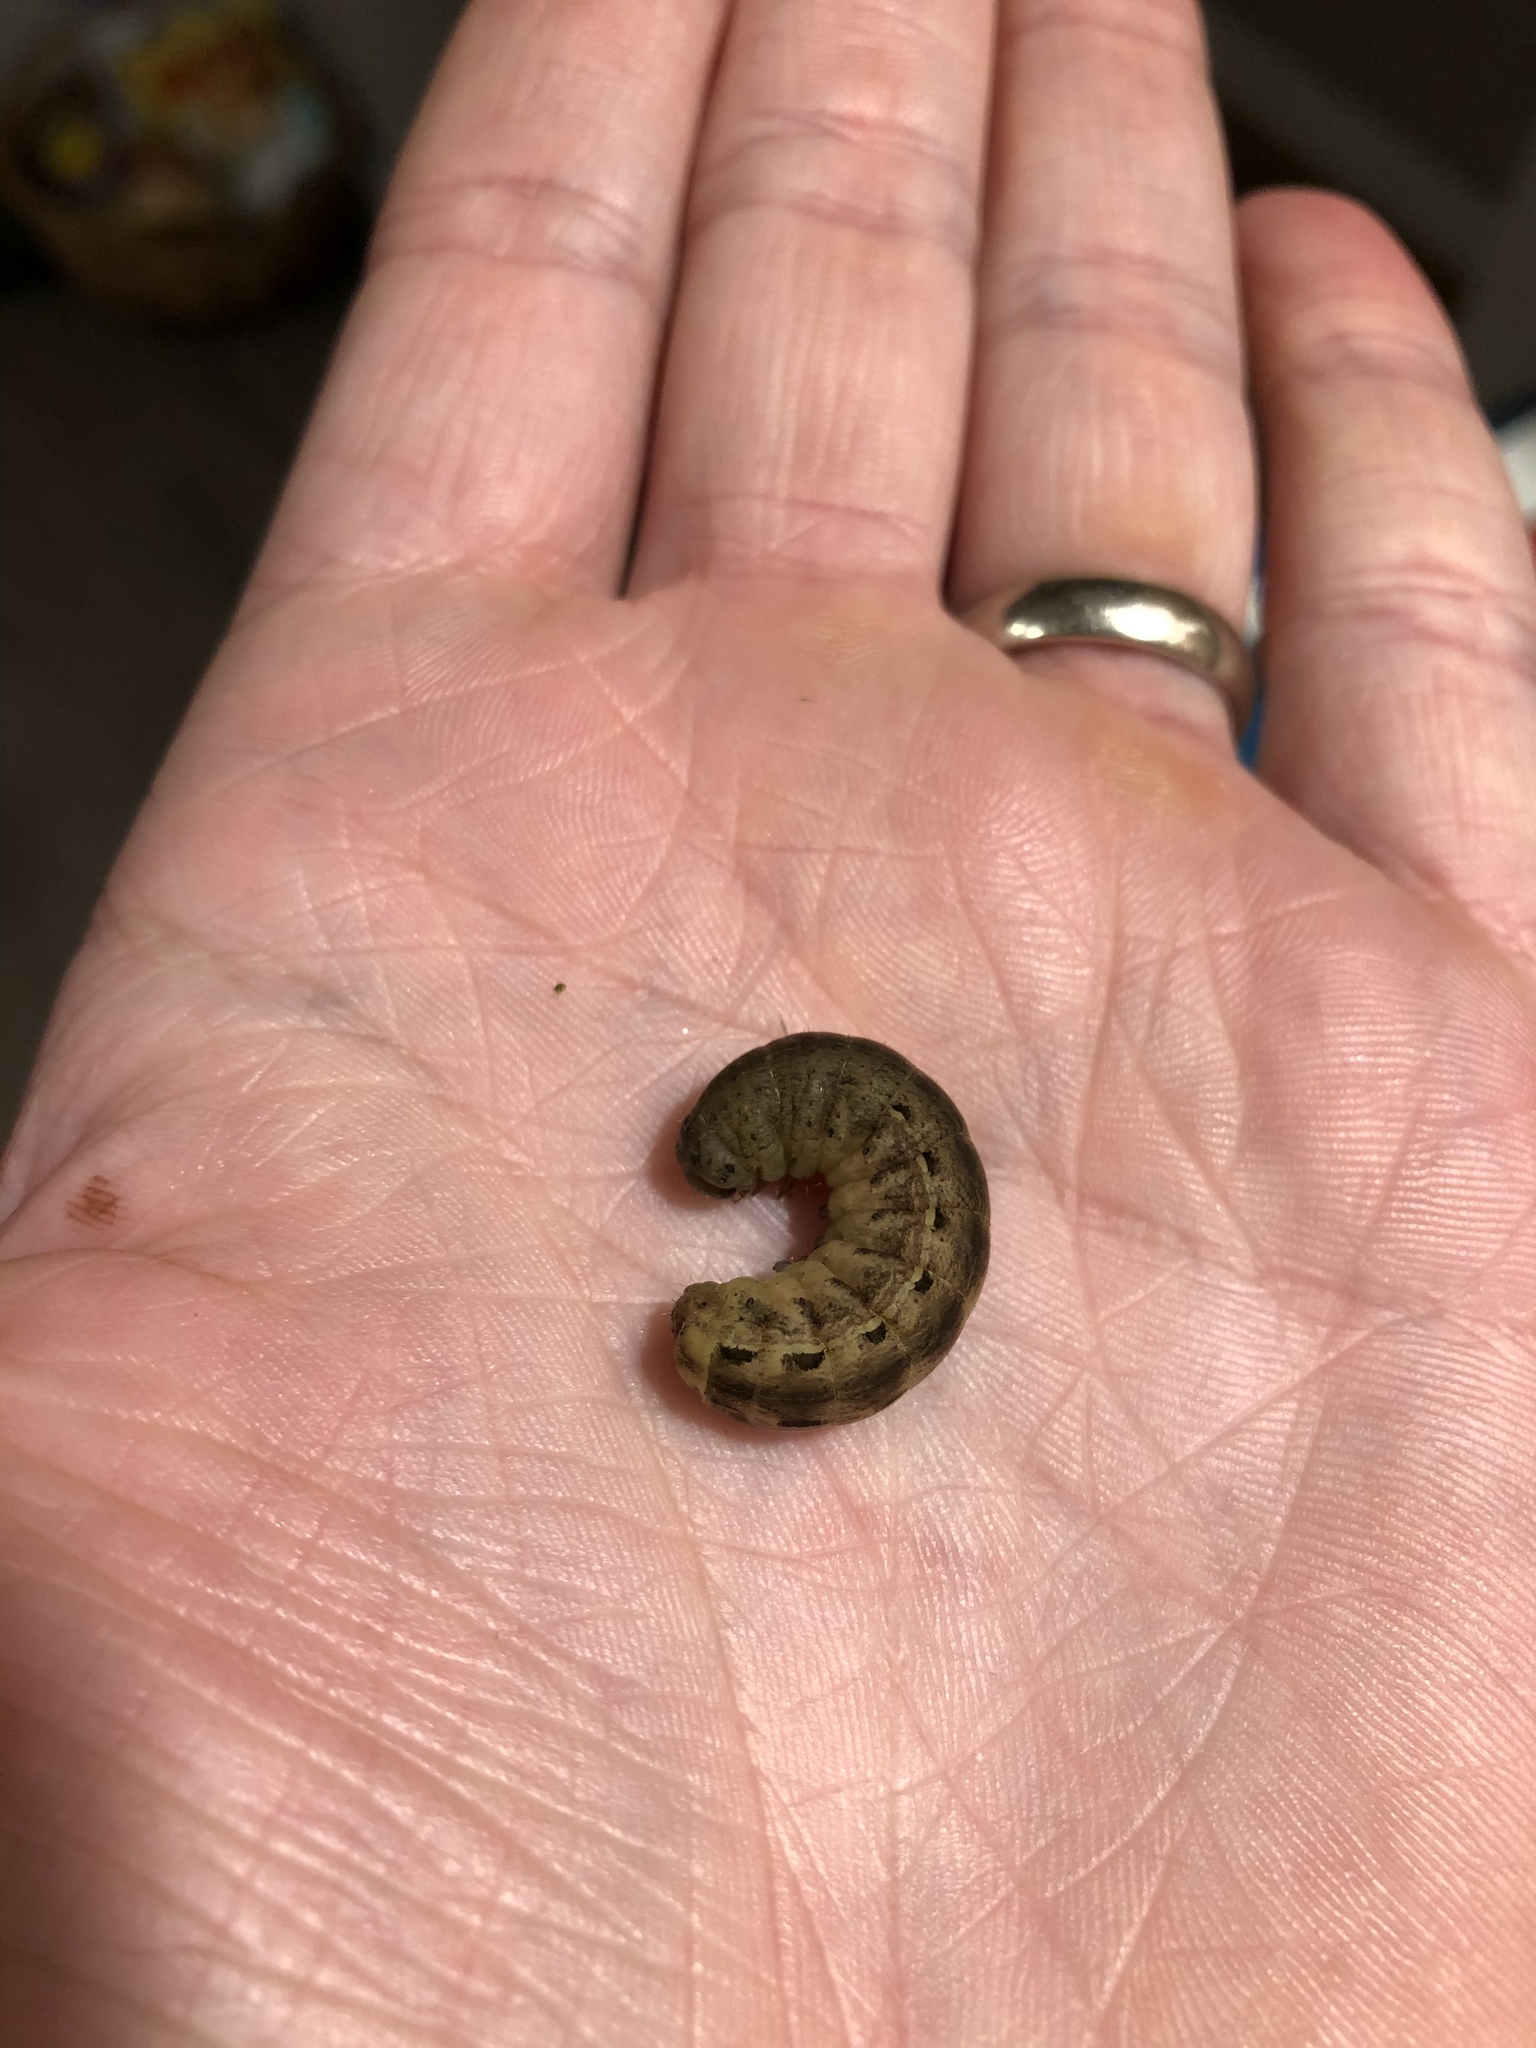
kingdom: Animalia
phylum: Arthropoda
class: Insecta
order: Lepidoptera
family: Noctuidae
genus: Noctua
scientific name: Noctua pronuba
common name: Large yellow underwing
